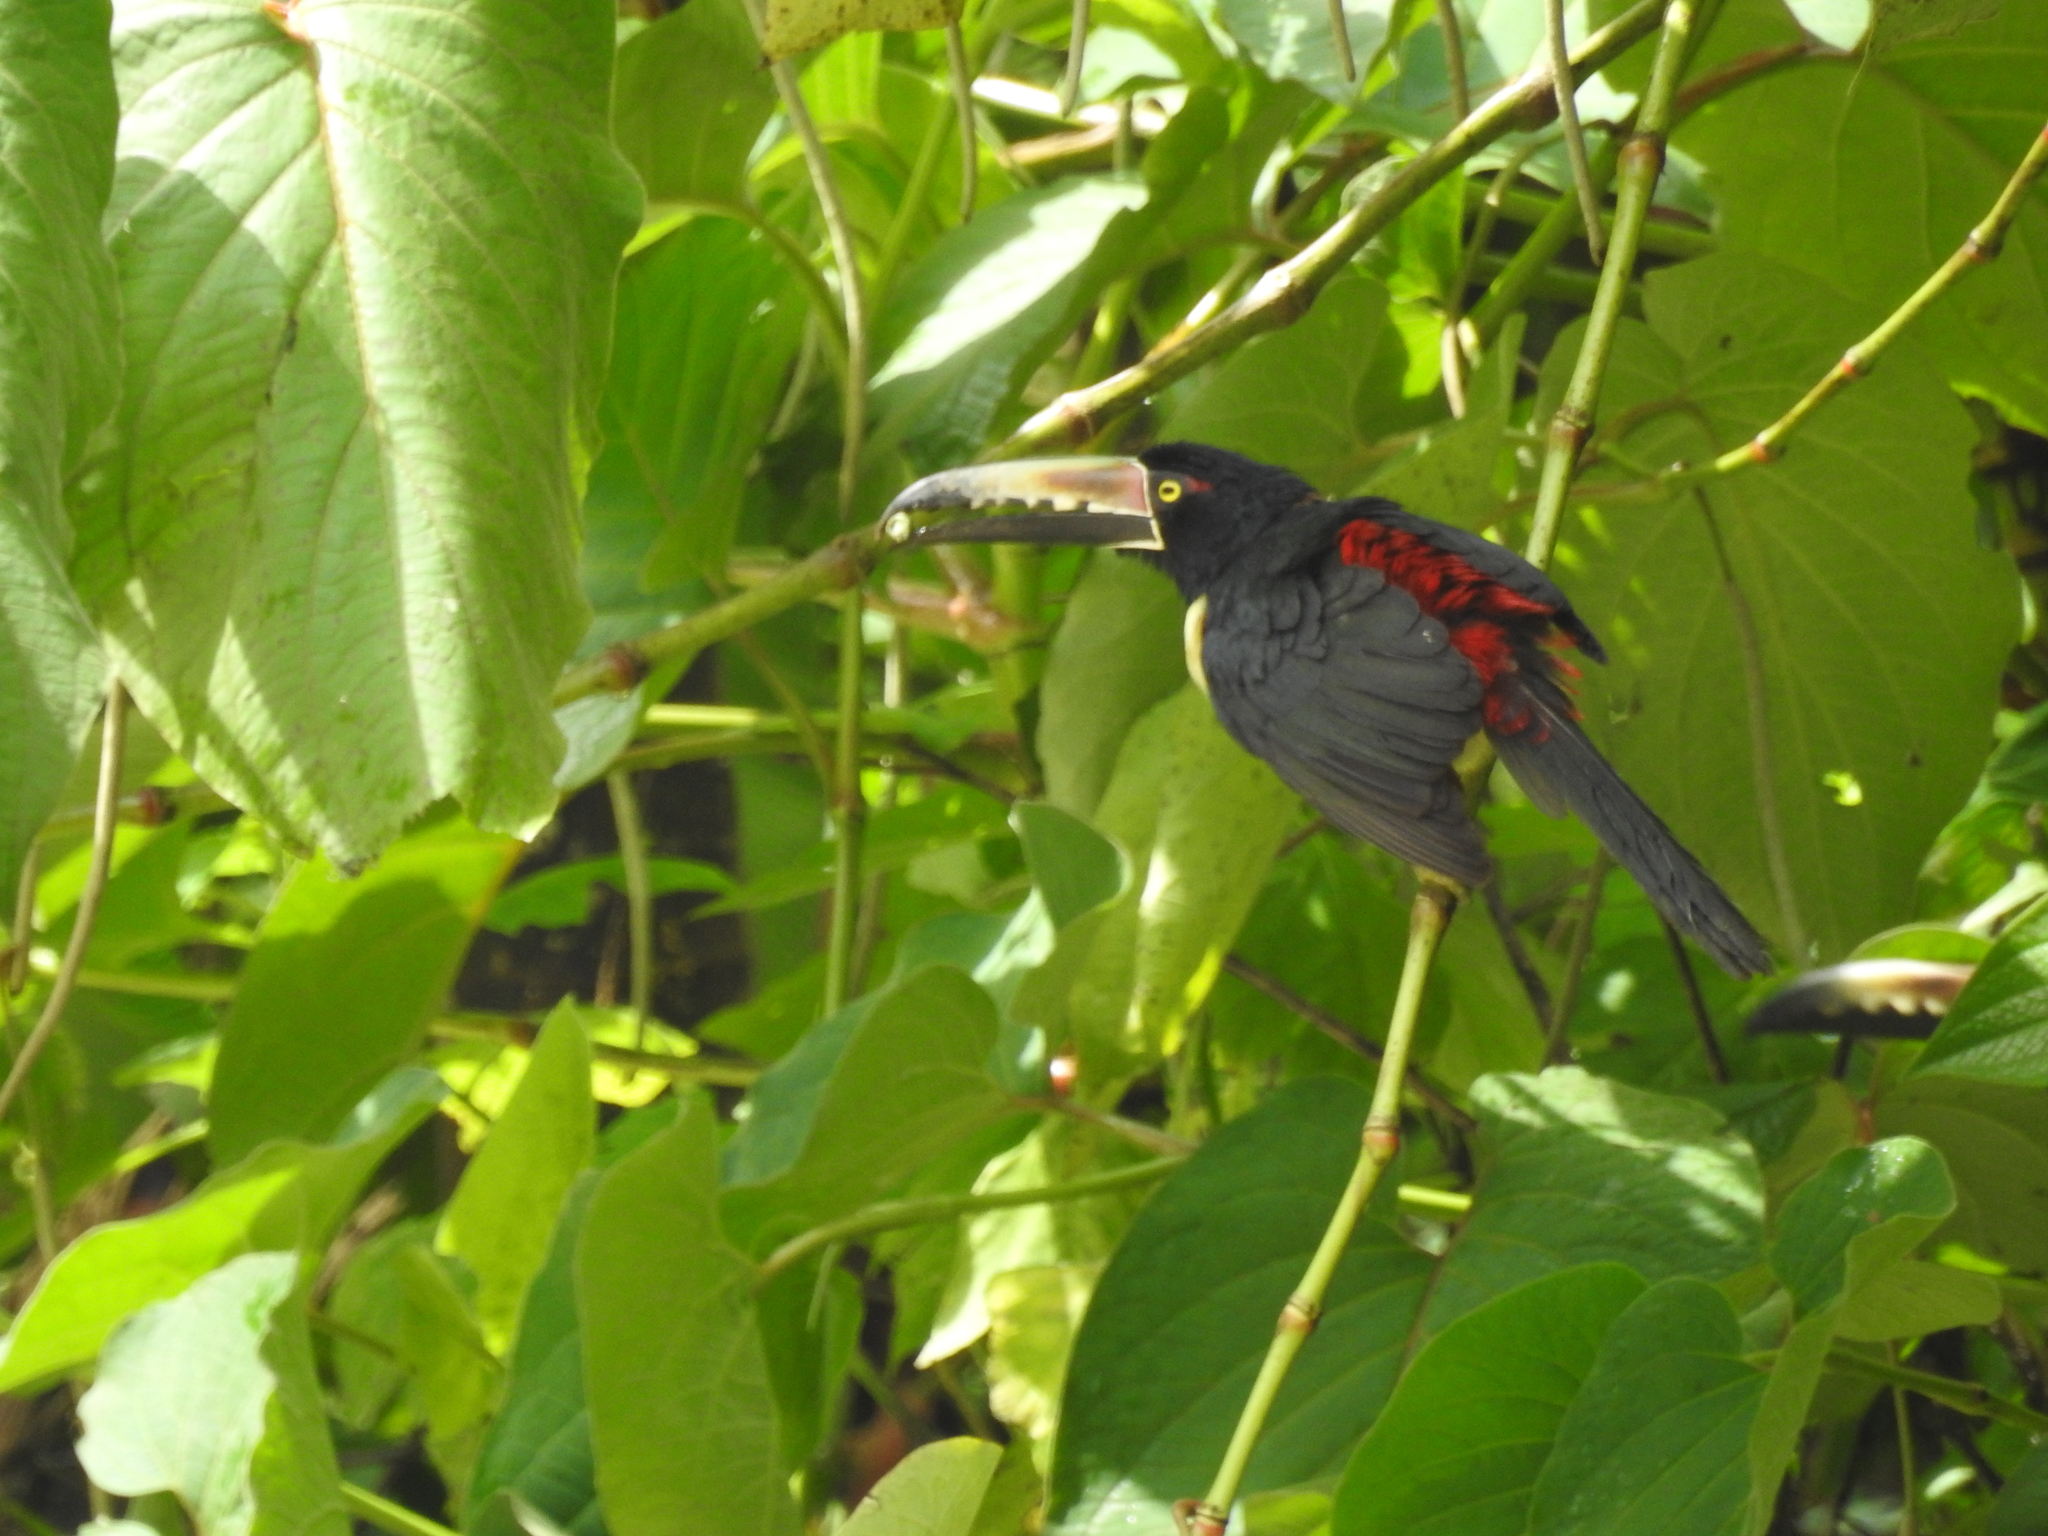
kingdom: Animalia
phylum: Chordata
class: Aves
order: Piciformes
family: Ramphastidae
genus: Pteroglossus
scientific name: Pteroglossus torquatus
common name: Collared aracari
